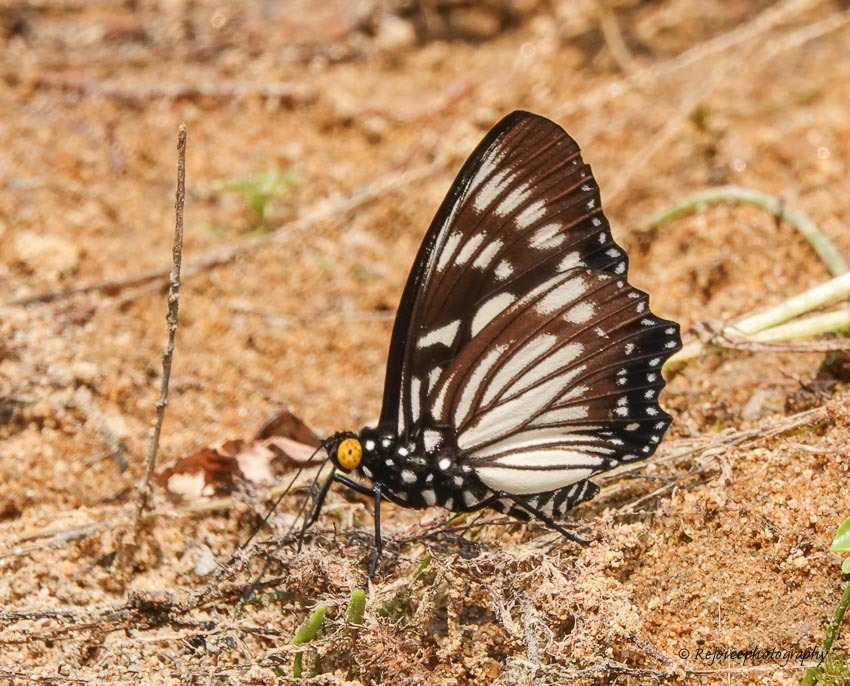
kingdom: Animalia
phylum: Arthropoda
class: Insecta
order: Lepidoptera
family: Nymphalidae
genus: Euripus
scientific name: Euripus nyctelius
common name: Courtesan
